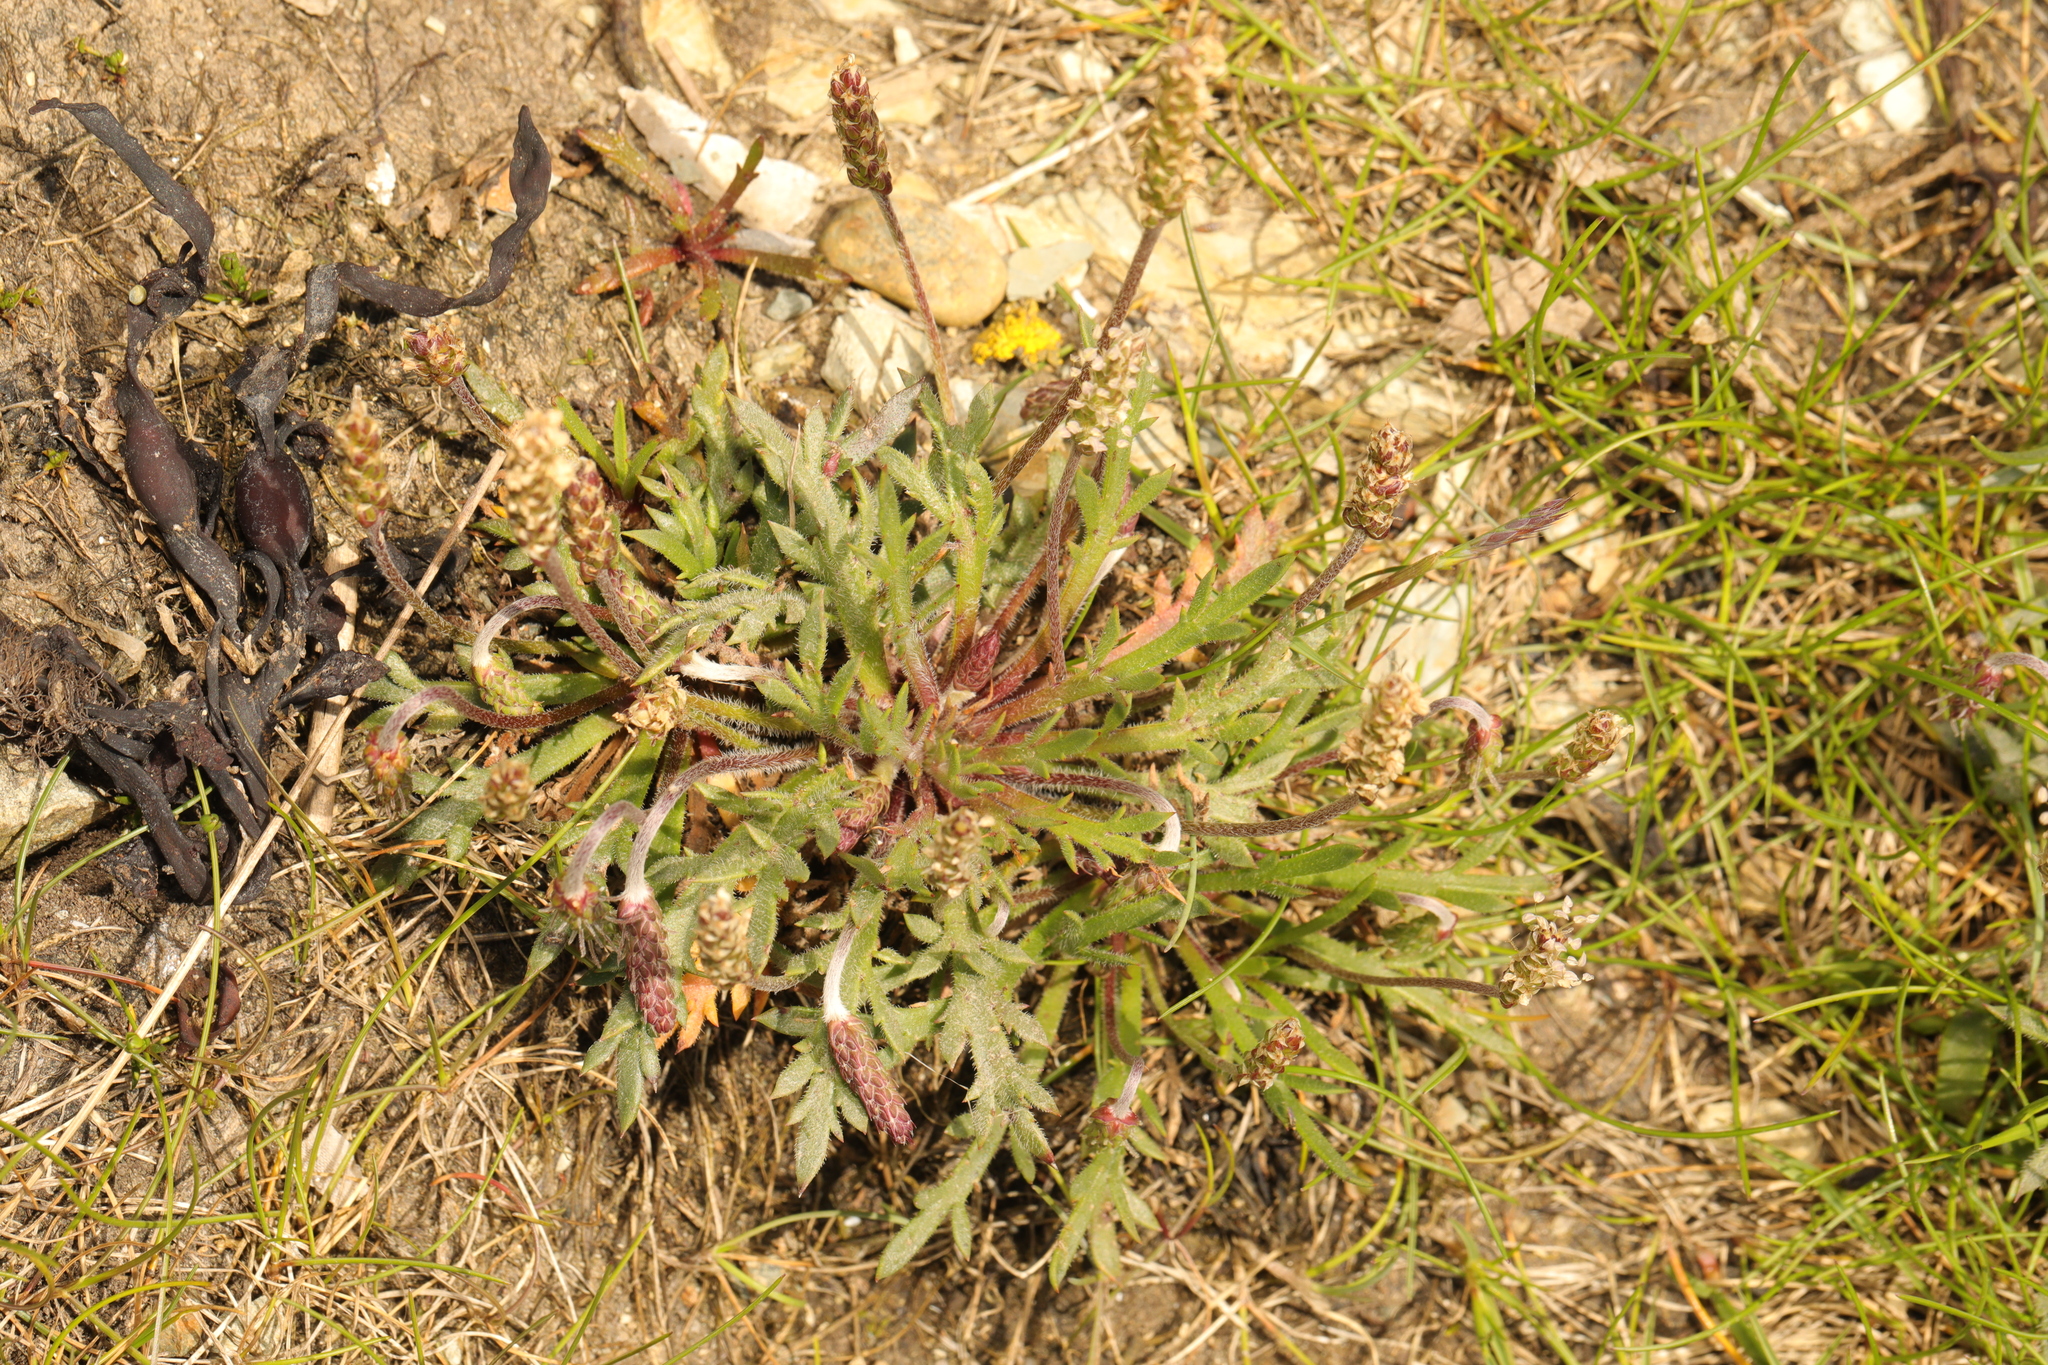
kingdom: Plantae
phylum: Tracheophyta
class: Magnoliopsida
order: Lamiales
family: Plantaginaceae
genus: Plantago
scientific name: Plantago coronopus
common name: Buck's-horn plantain
